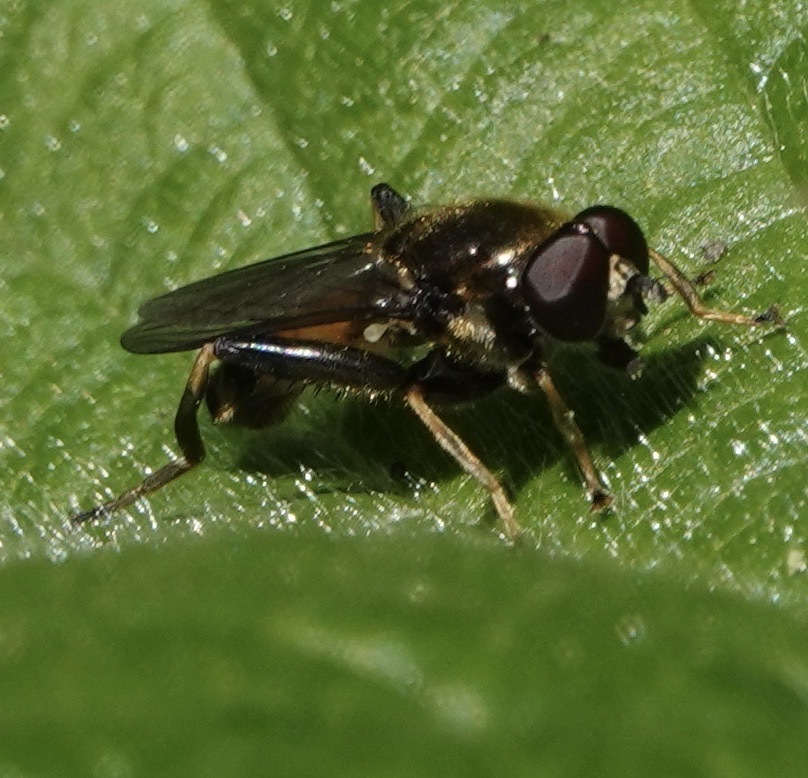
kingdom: Animalia
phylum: Arthropoda
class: Insecta
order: Diptera
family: Syrphidae
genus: Xylota
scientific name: Xylota segnis
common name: Brown-toed forest fly
